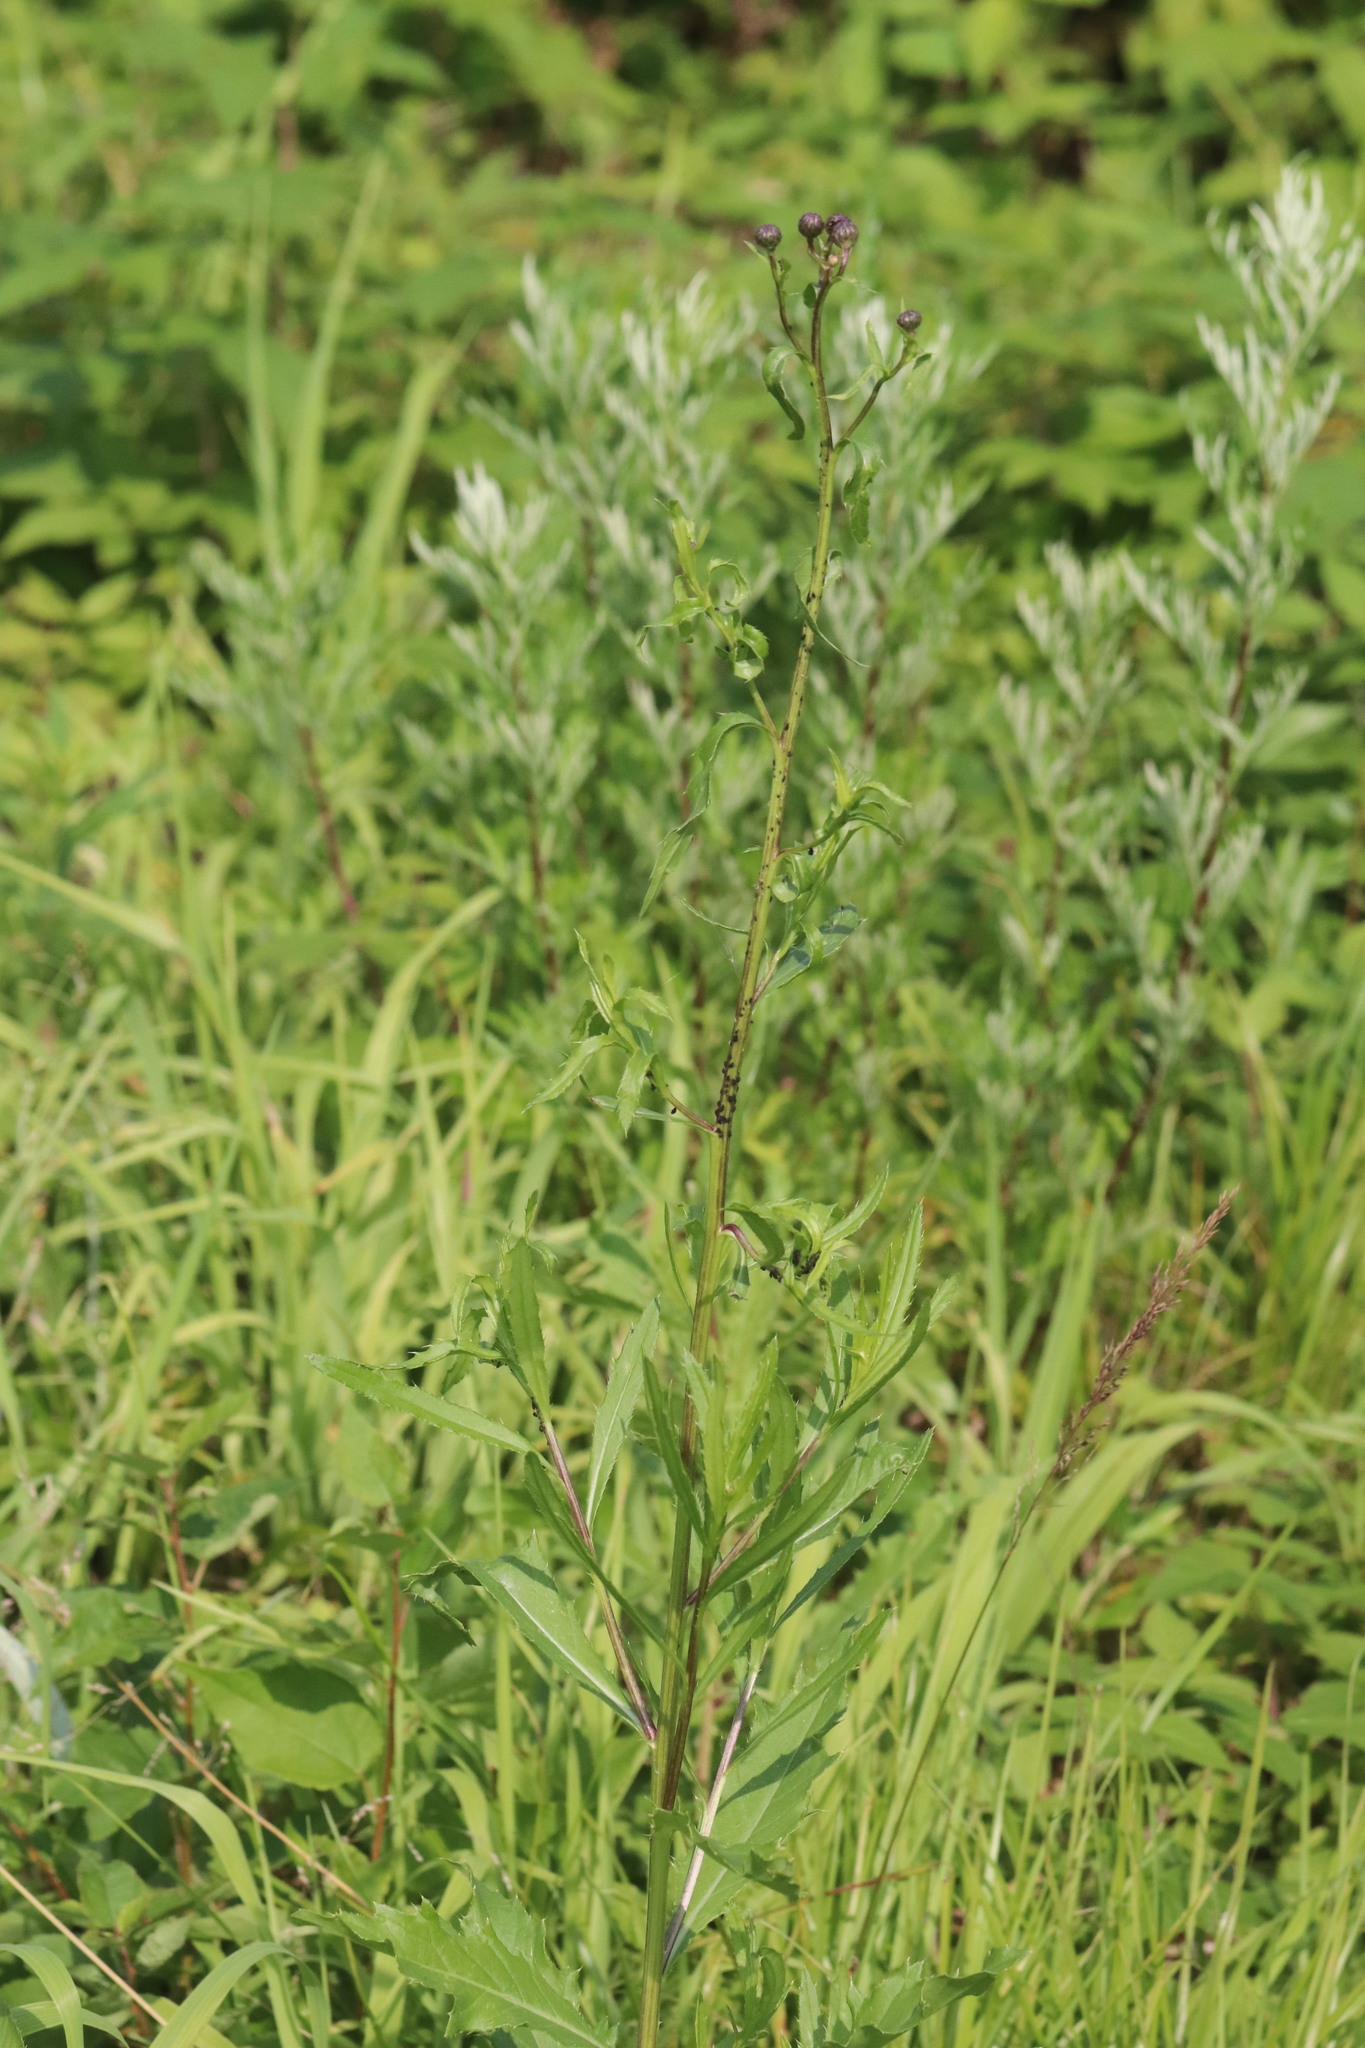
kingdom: Plantae
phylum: Tracheophyta
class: Magnoliopsida
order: Asterales
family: Asteraceae
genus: Cirsium
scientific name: Cirsium arvense
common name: Creeping thistle
